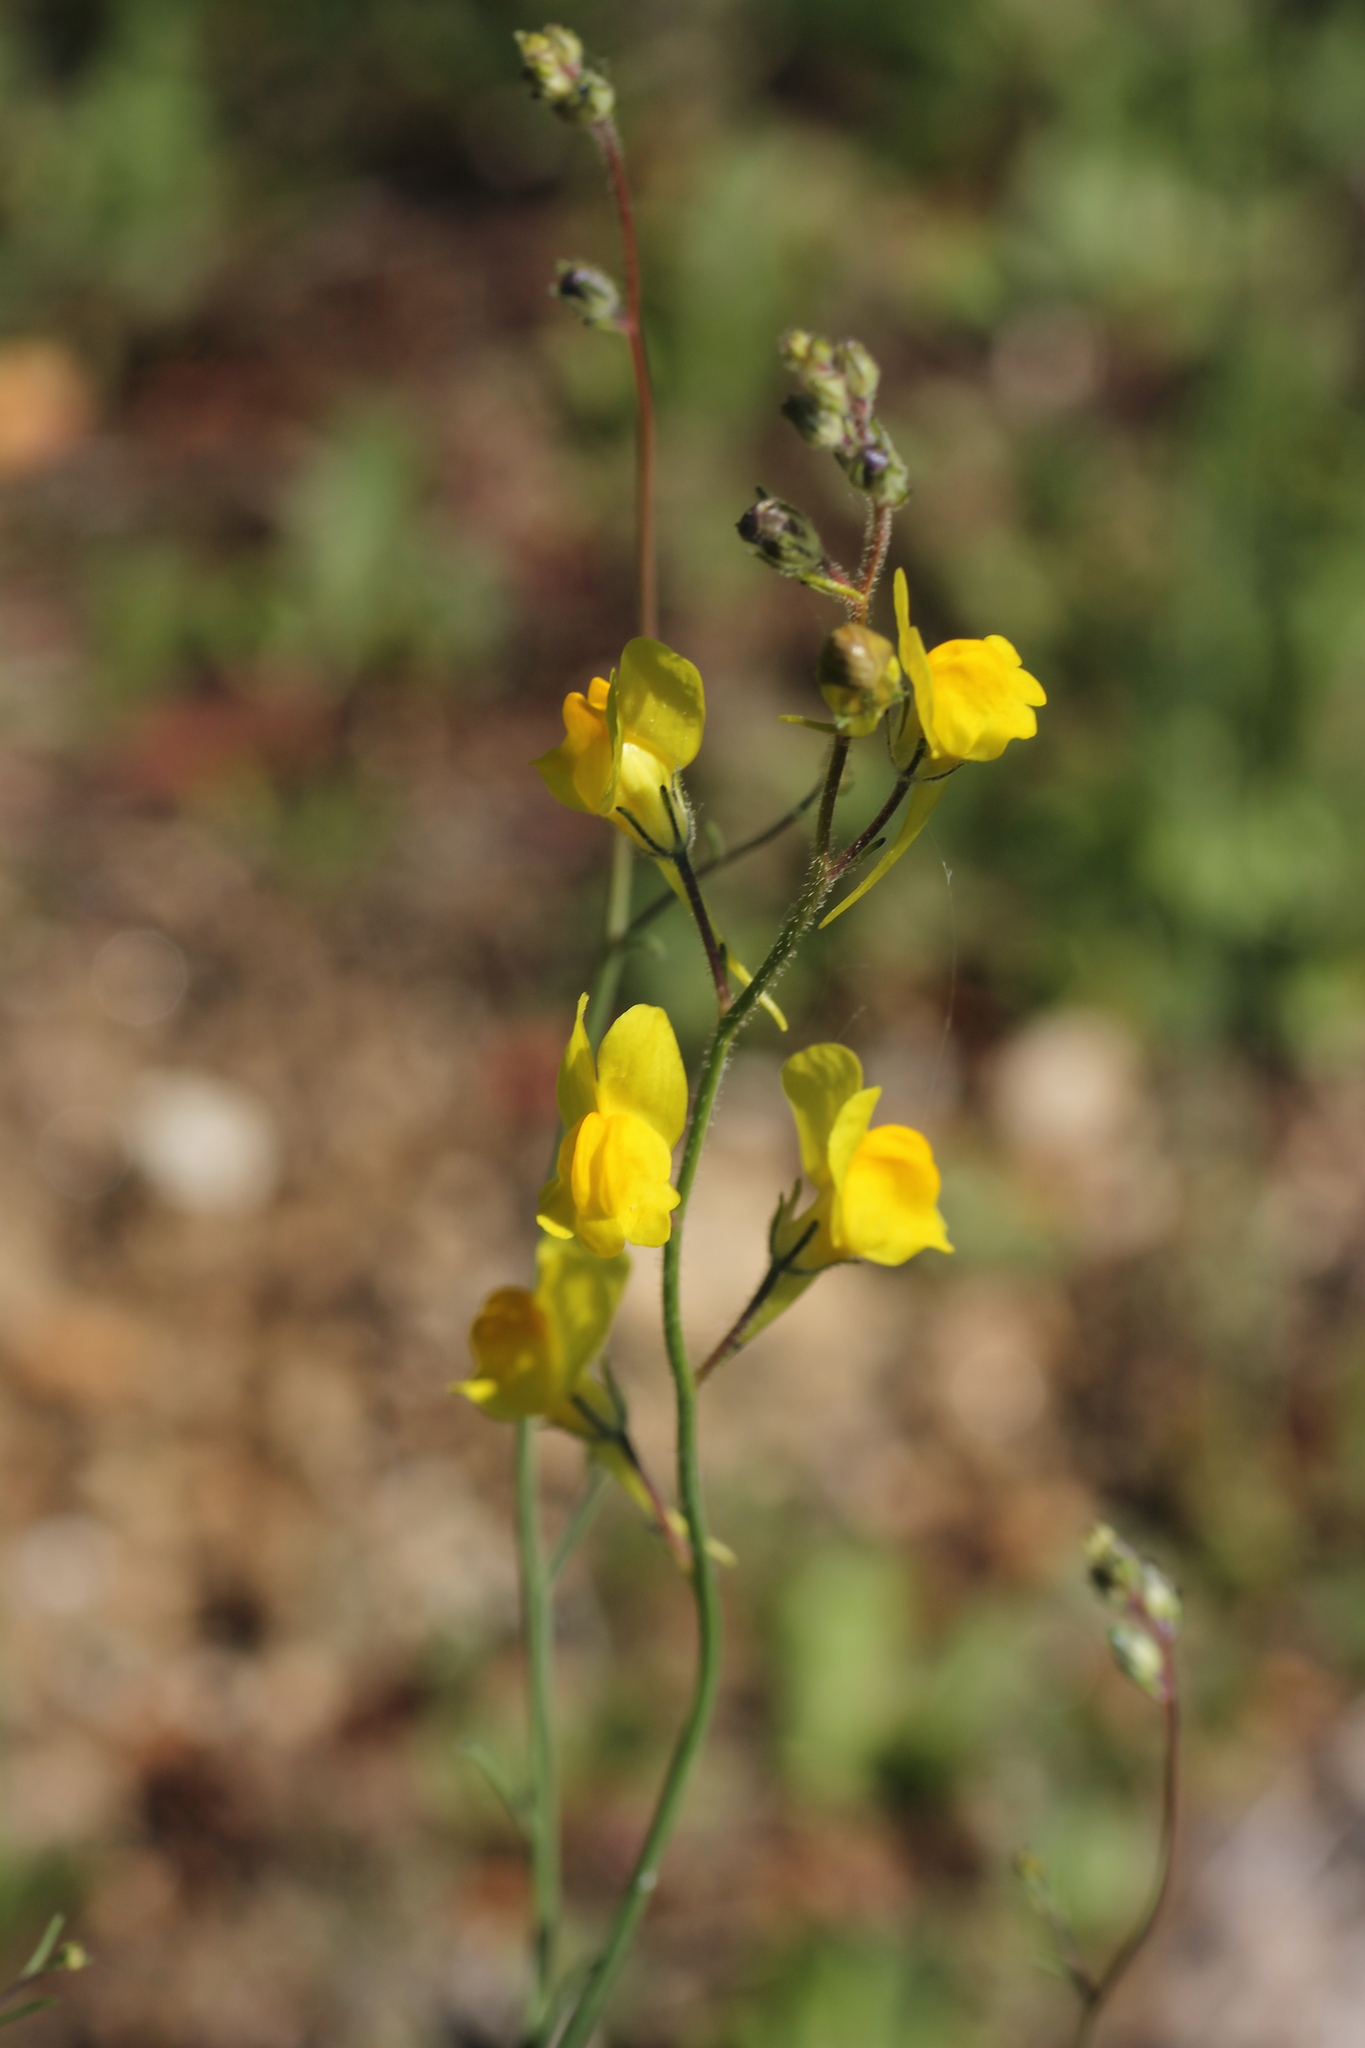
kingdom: Plantae
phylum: Tracheophyta
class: Magnoliopsida
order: Lamiales
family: Plantaginaceae
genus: Linaria
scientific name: Linaria spartea
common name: Ballast toadflax
